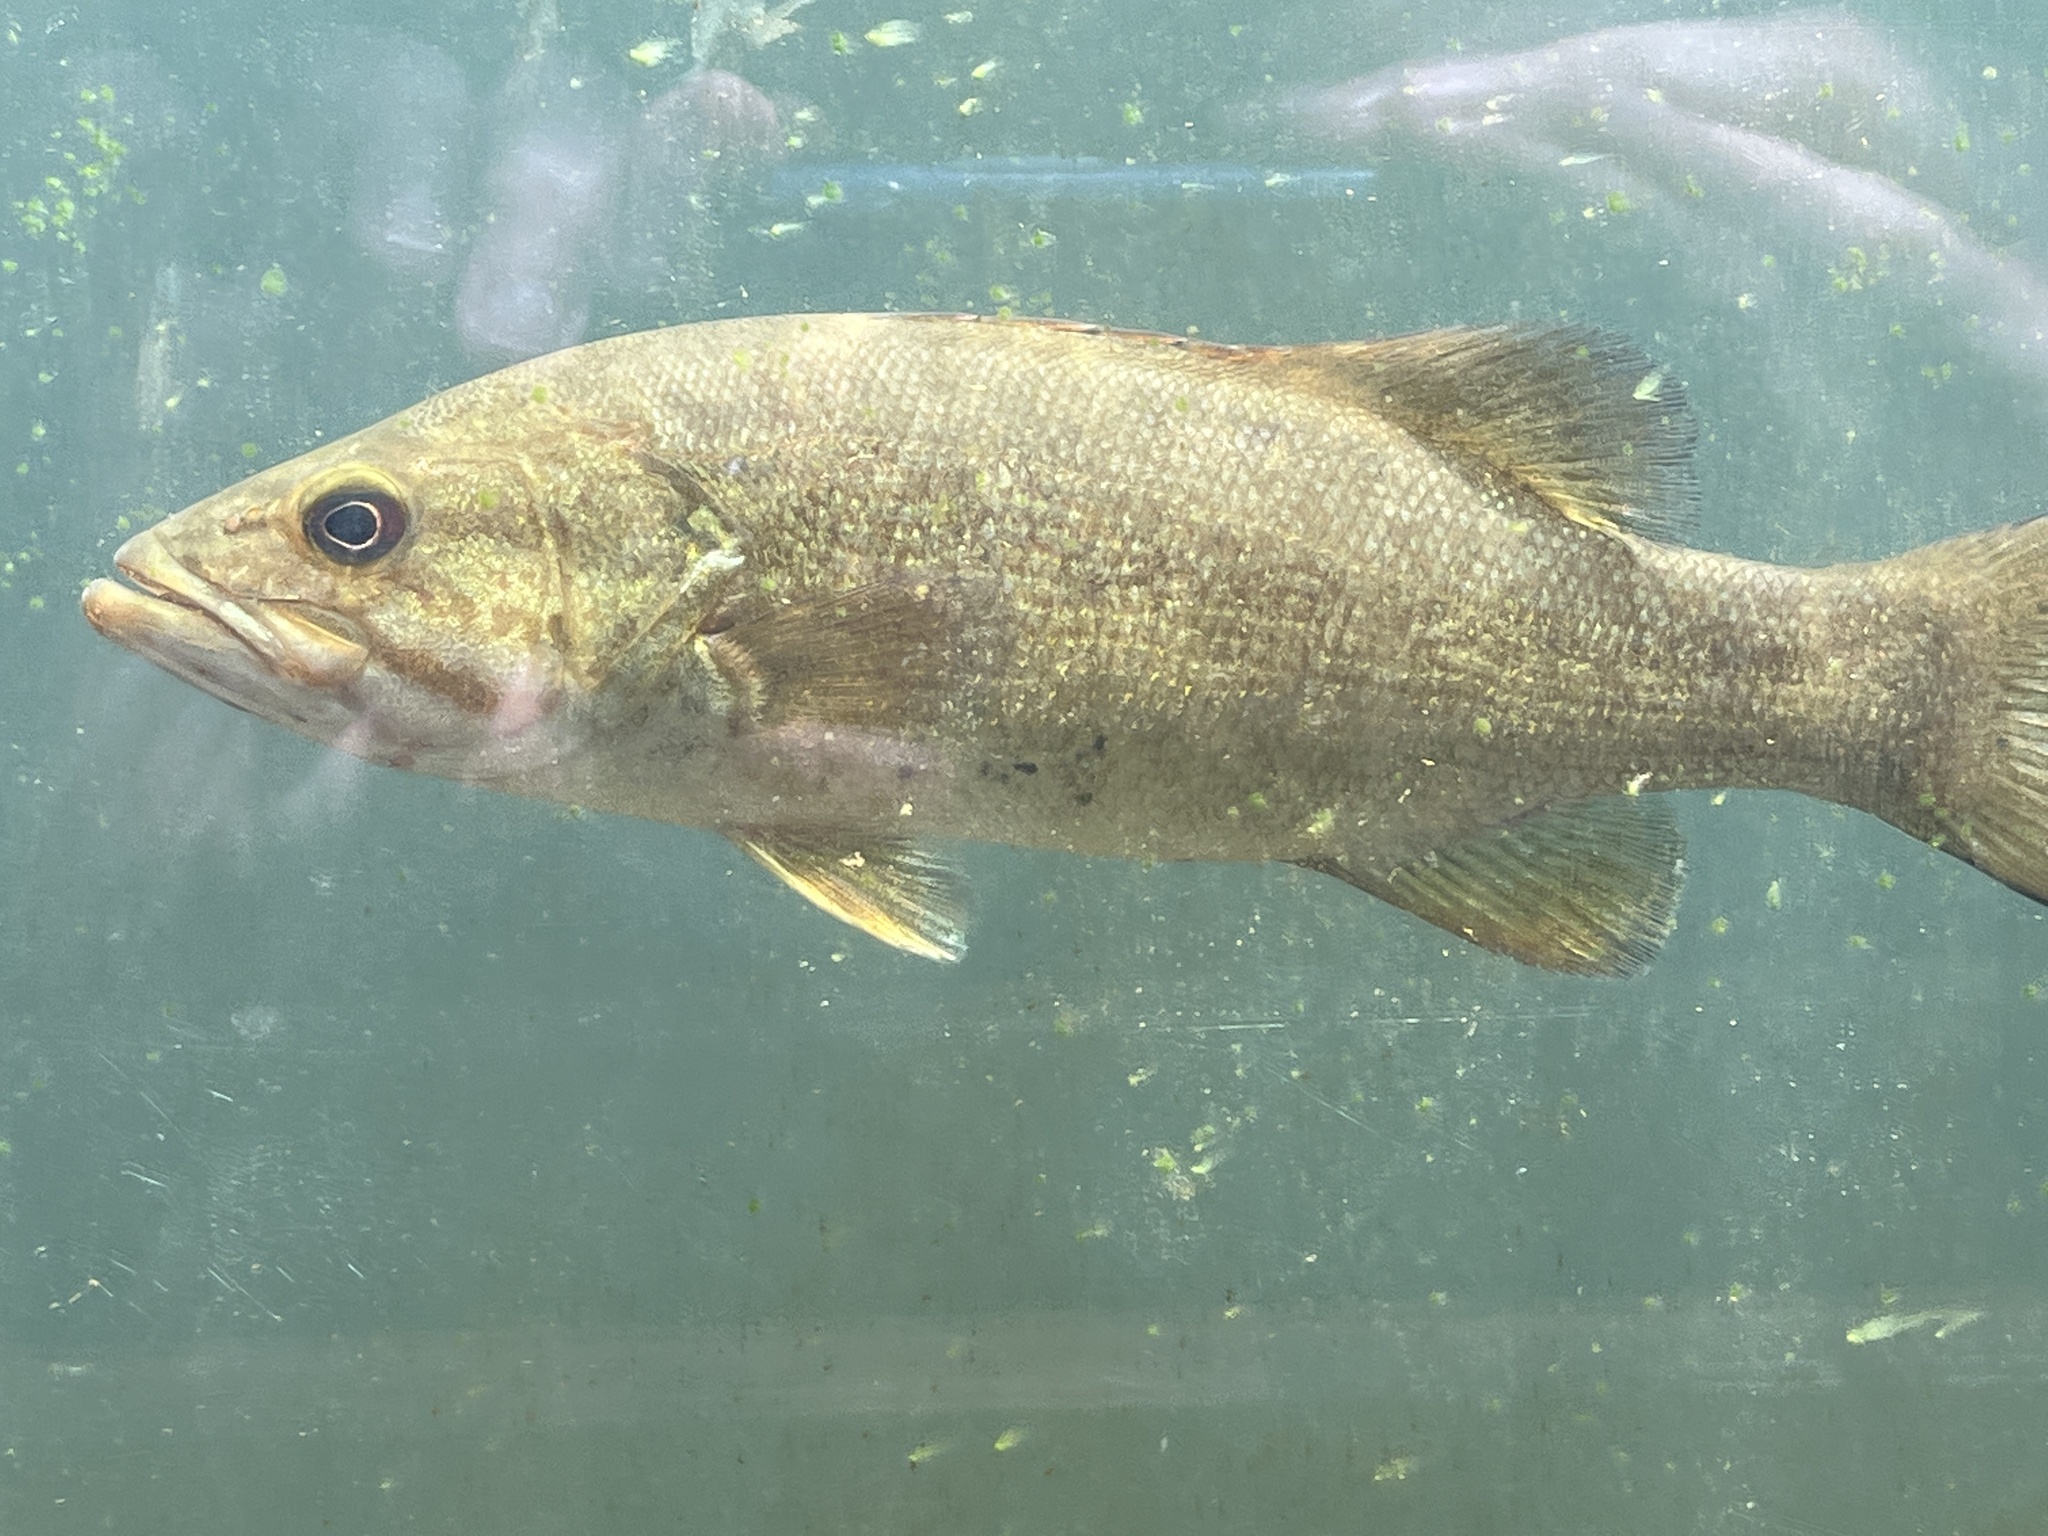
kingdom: Animalia
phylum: Chordata
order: Perciformes
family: Centrarchidae
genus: Micropterus
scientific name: Micropterus dolomieu
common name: Smallmouth bass
